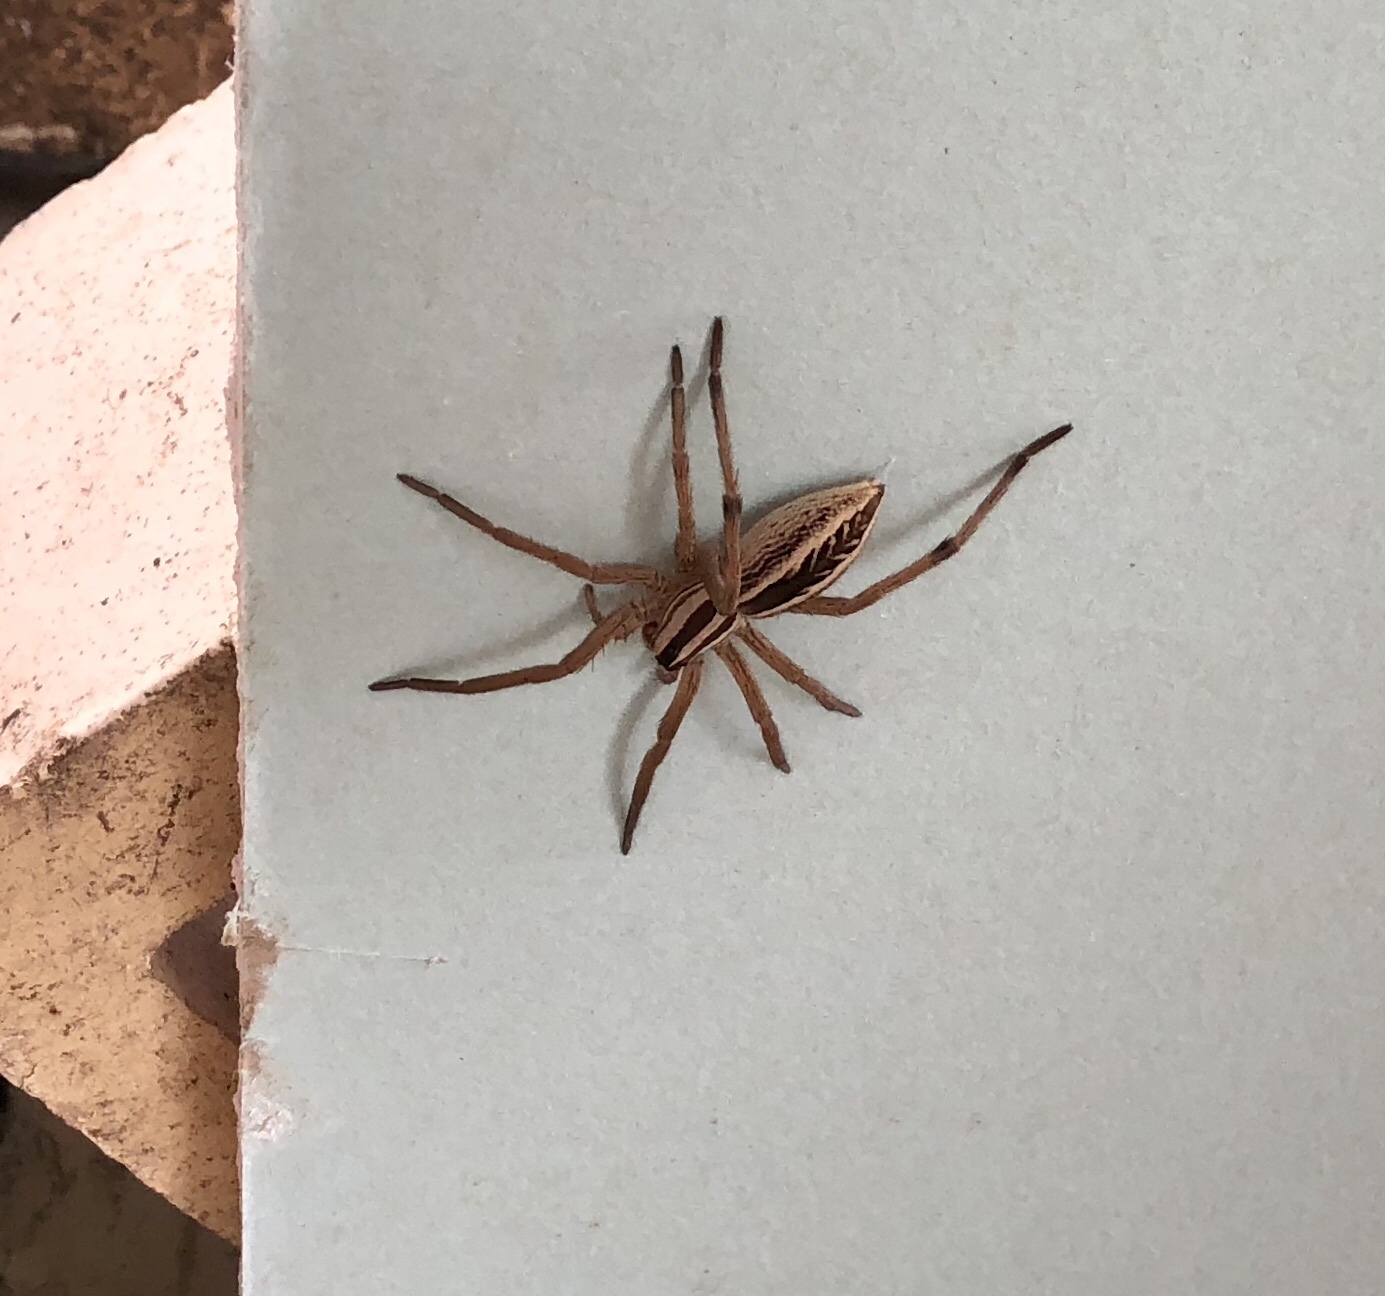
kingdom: Animalia
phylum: Arthropoda
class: Arachnida
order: Araneae
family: Lycosidae
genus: Rabidosa
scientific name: Rabidosa rabida
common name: Rabid wolf spider
